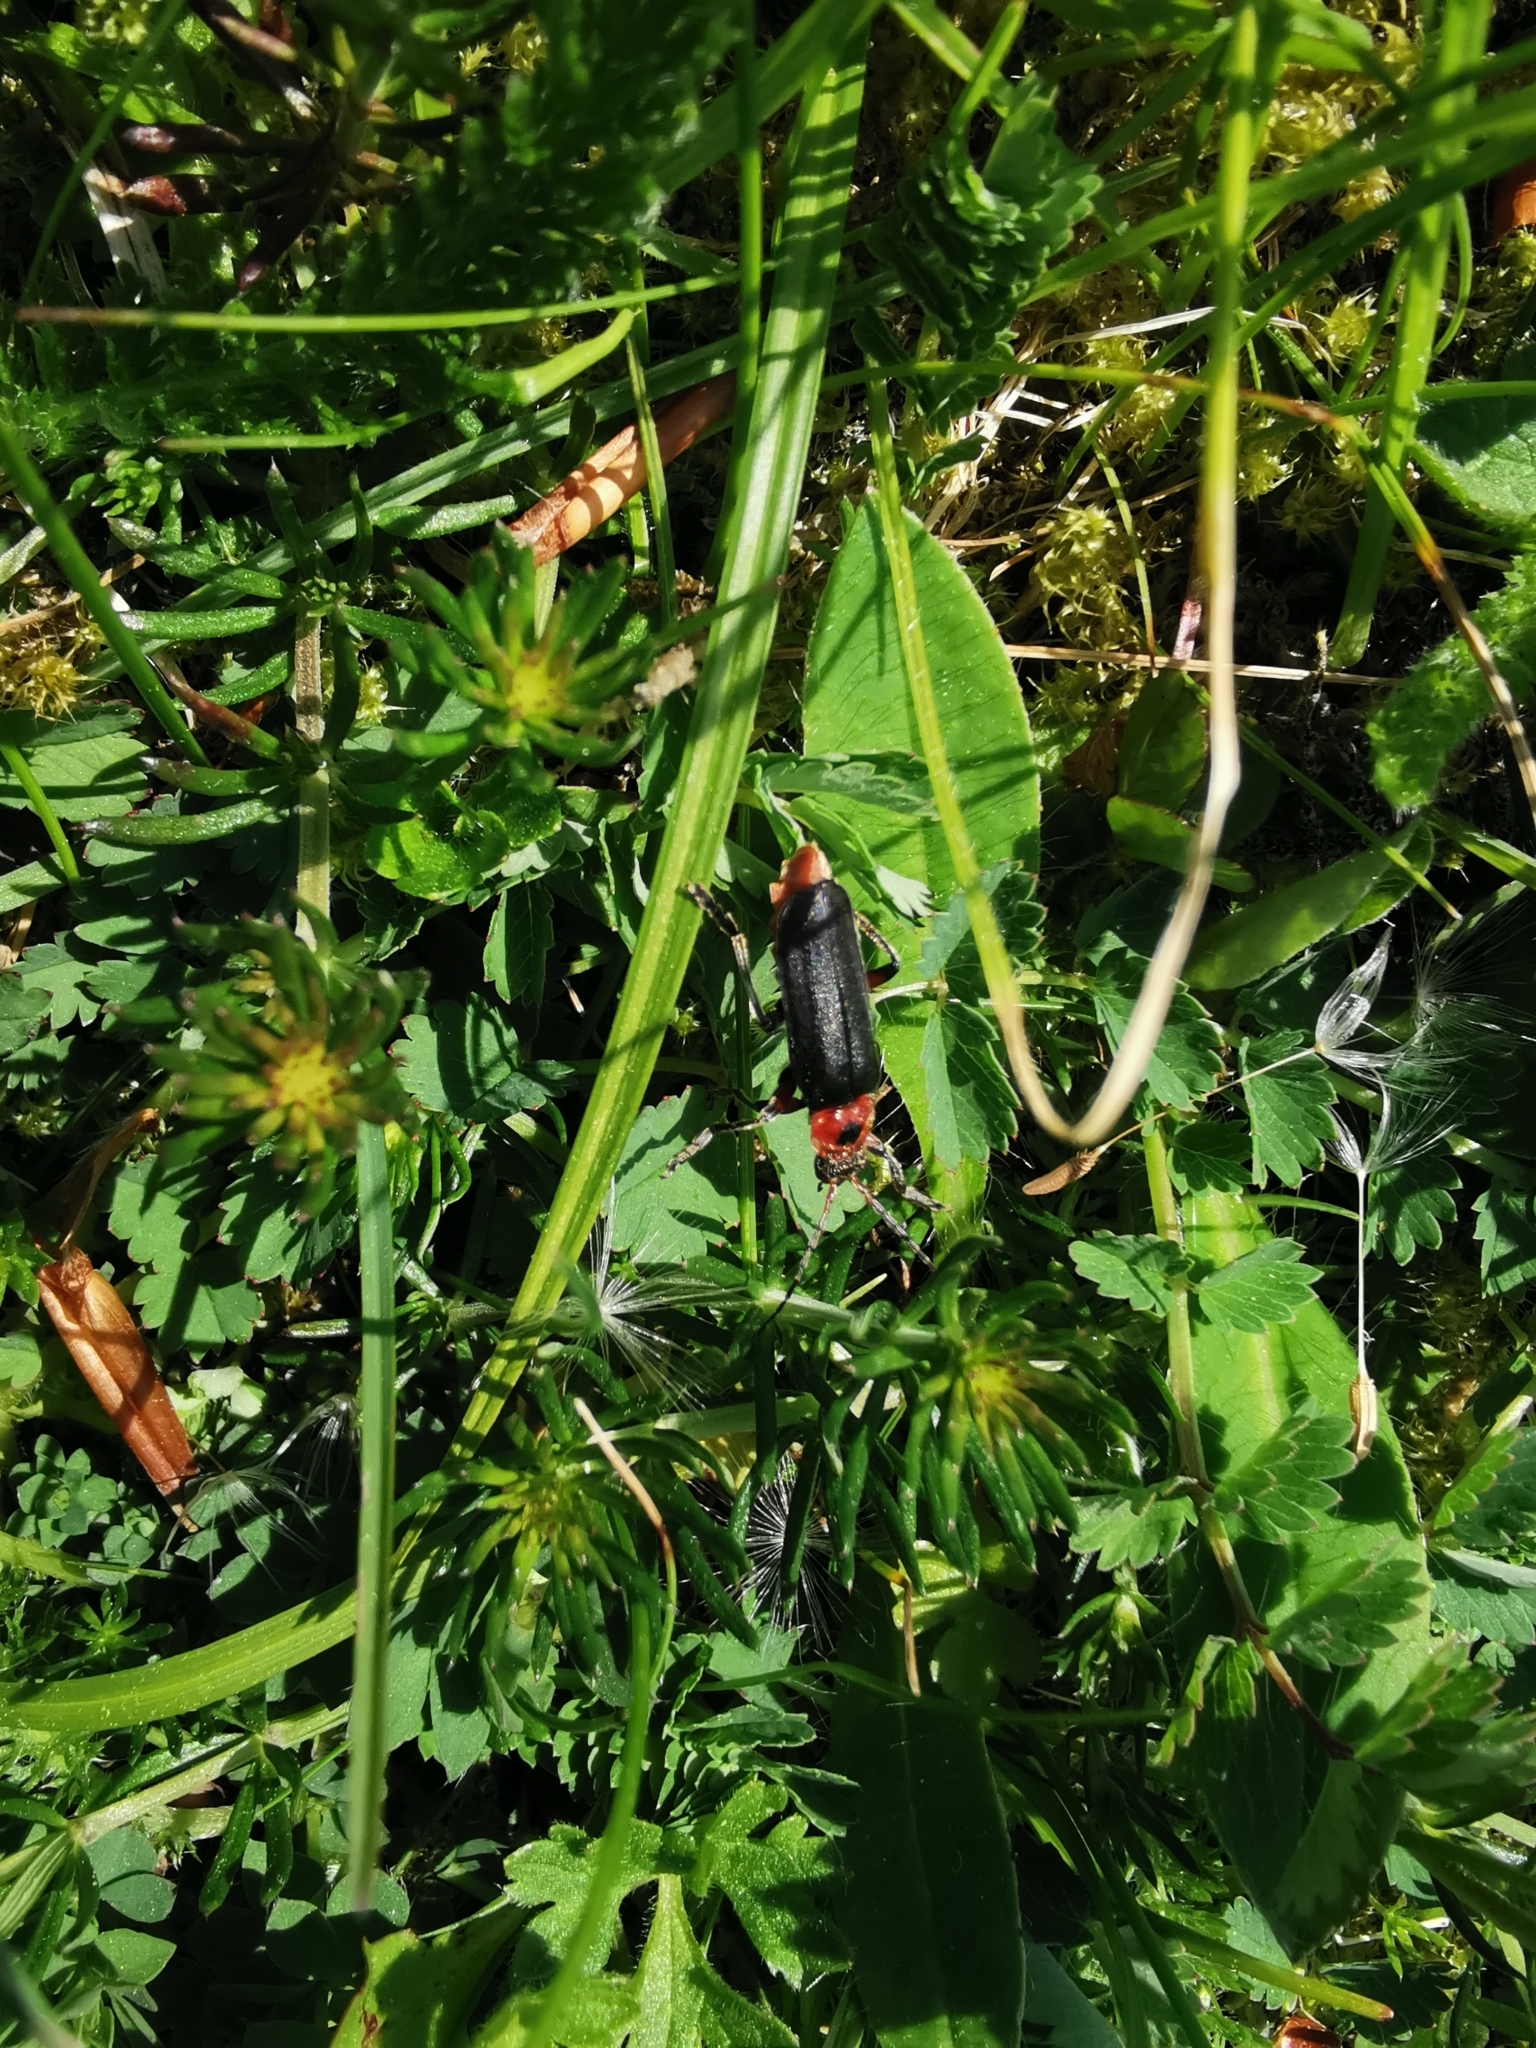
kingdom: Animalia
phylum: Arthropoda
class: Insecta
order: Coleoptera
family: Cantharidae
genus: Cantharis
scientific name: Cantharis rustica
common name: Soldier beetle
